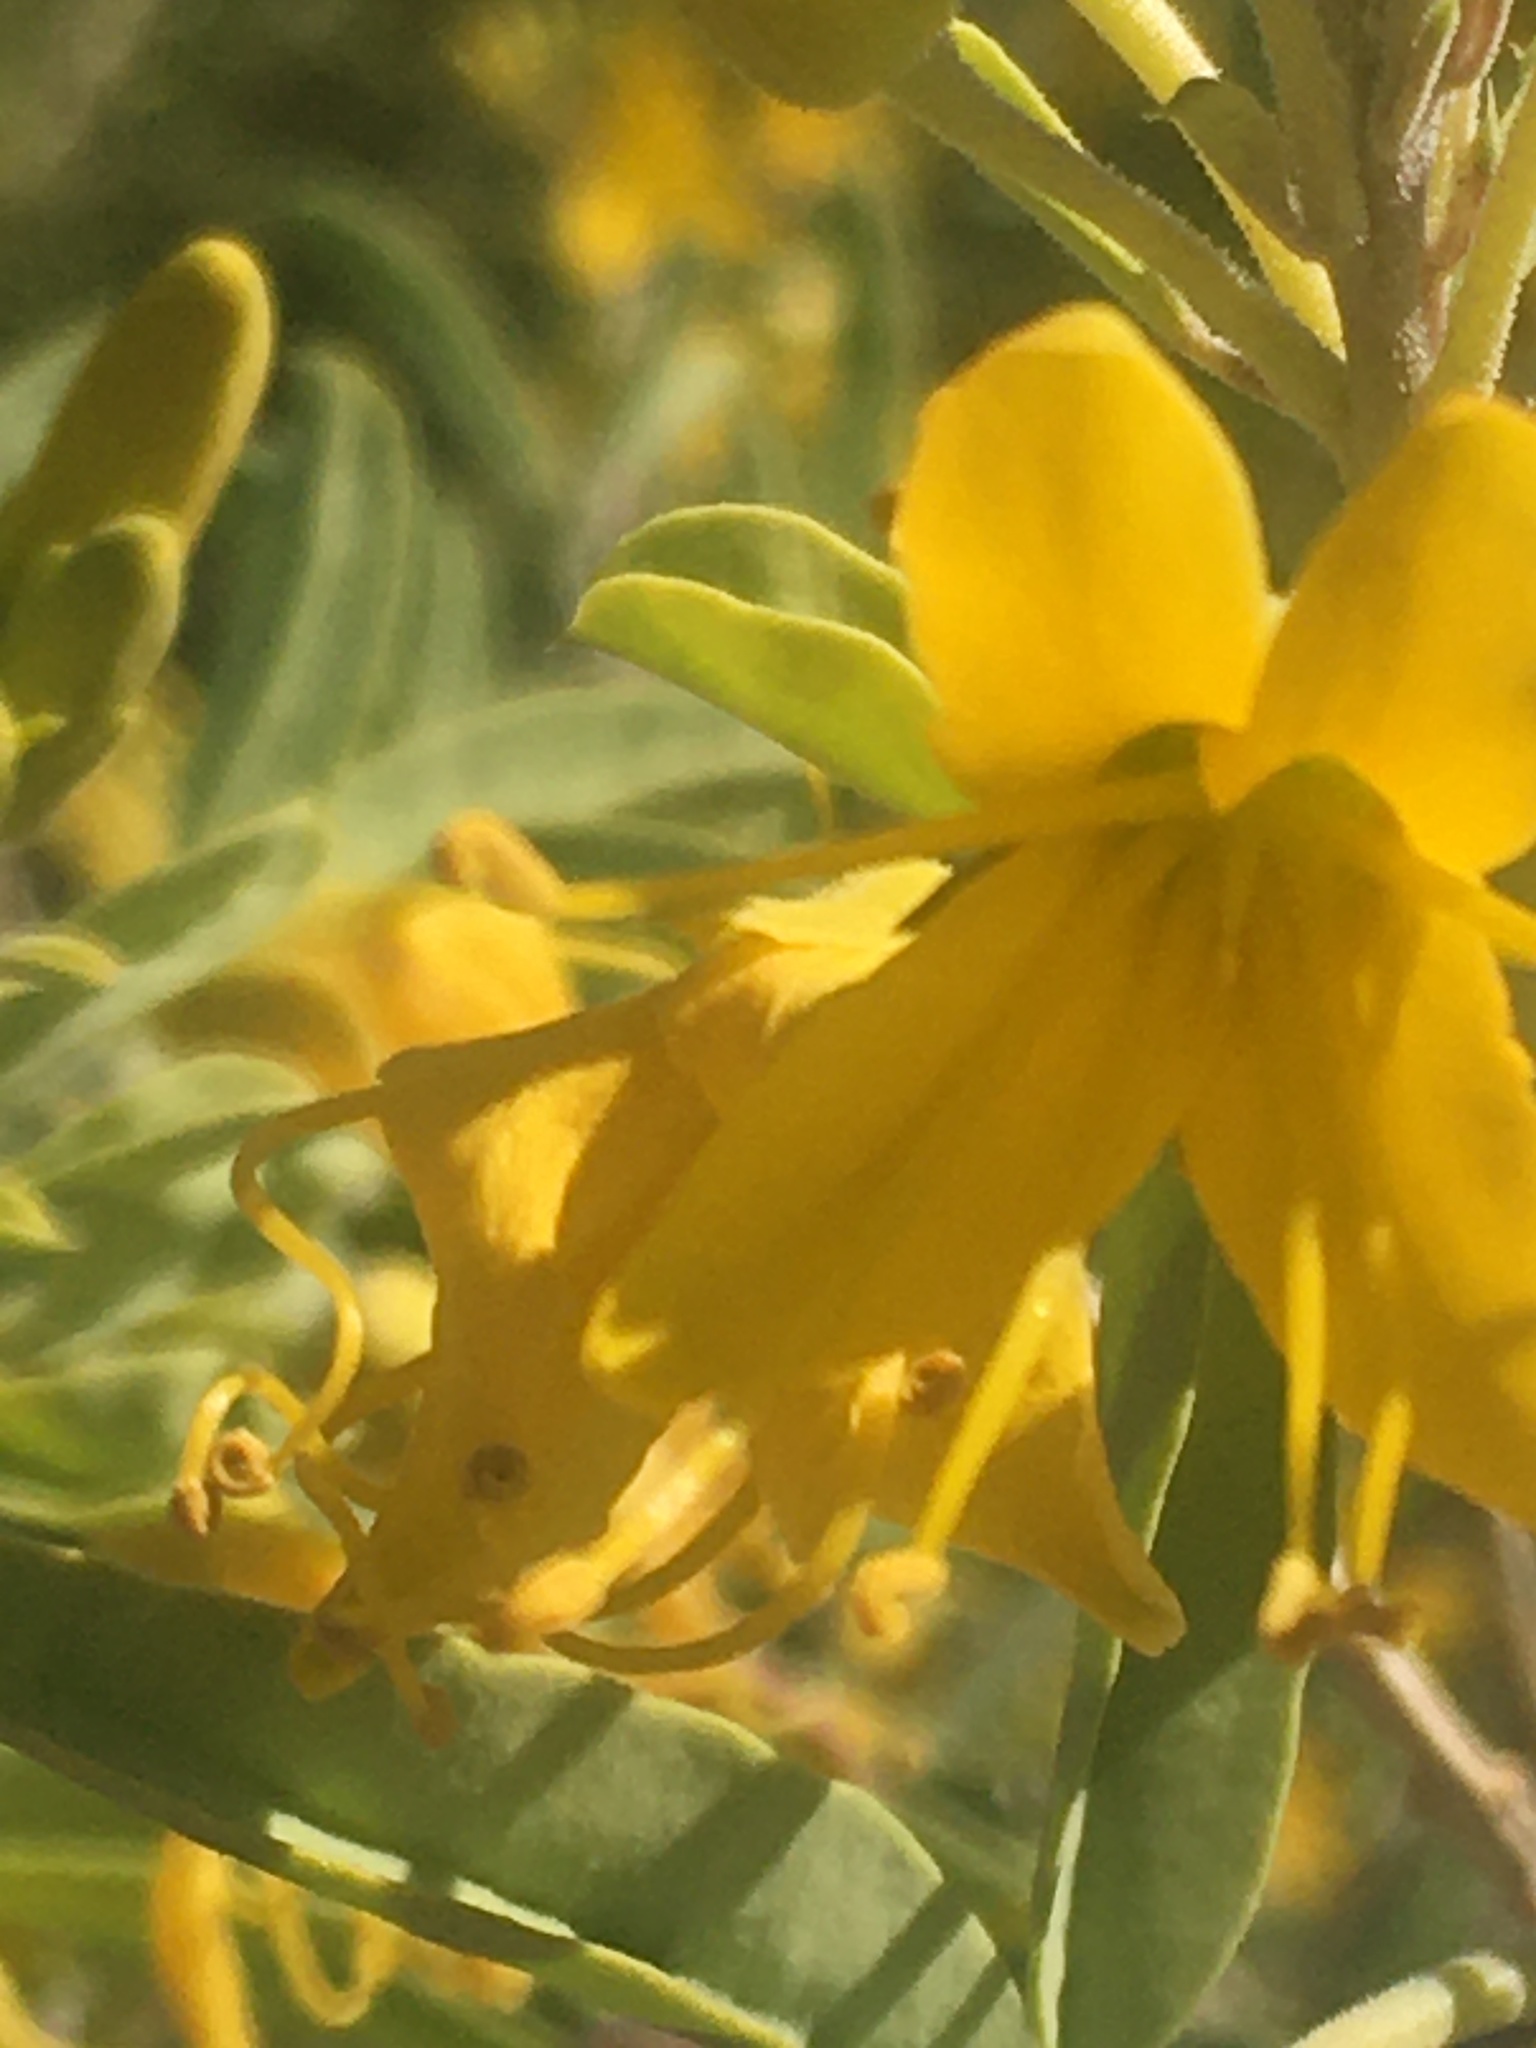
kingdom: Plantae
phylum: Tracheophyta
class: Magnoliopsida
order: Brassicales
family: Cleomaceae
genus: Cleomella
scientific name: Cleomella arborea
